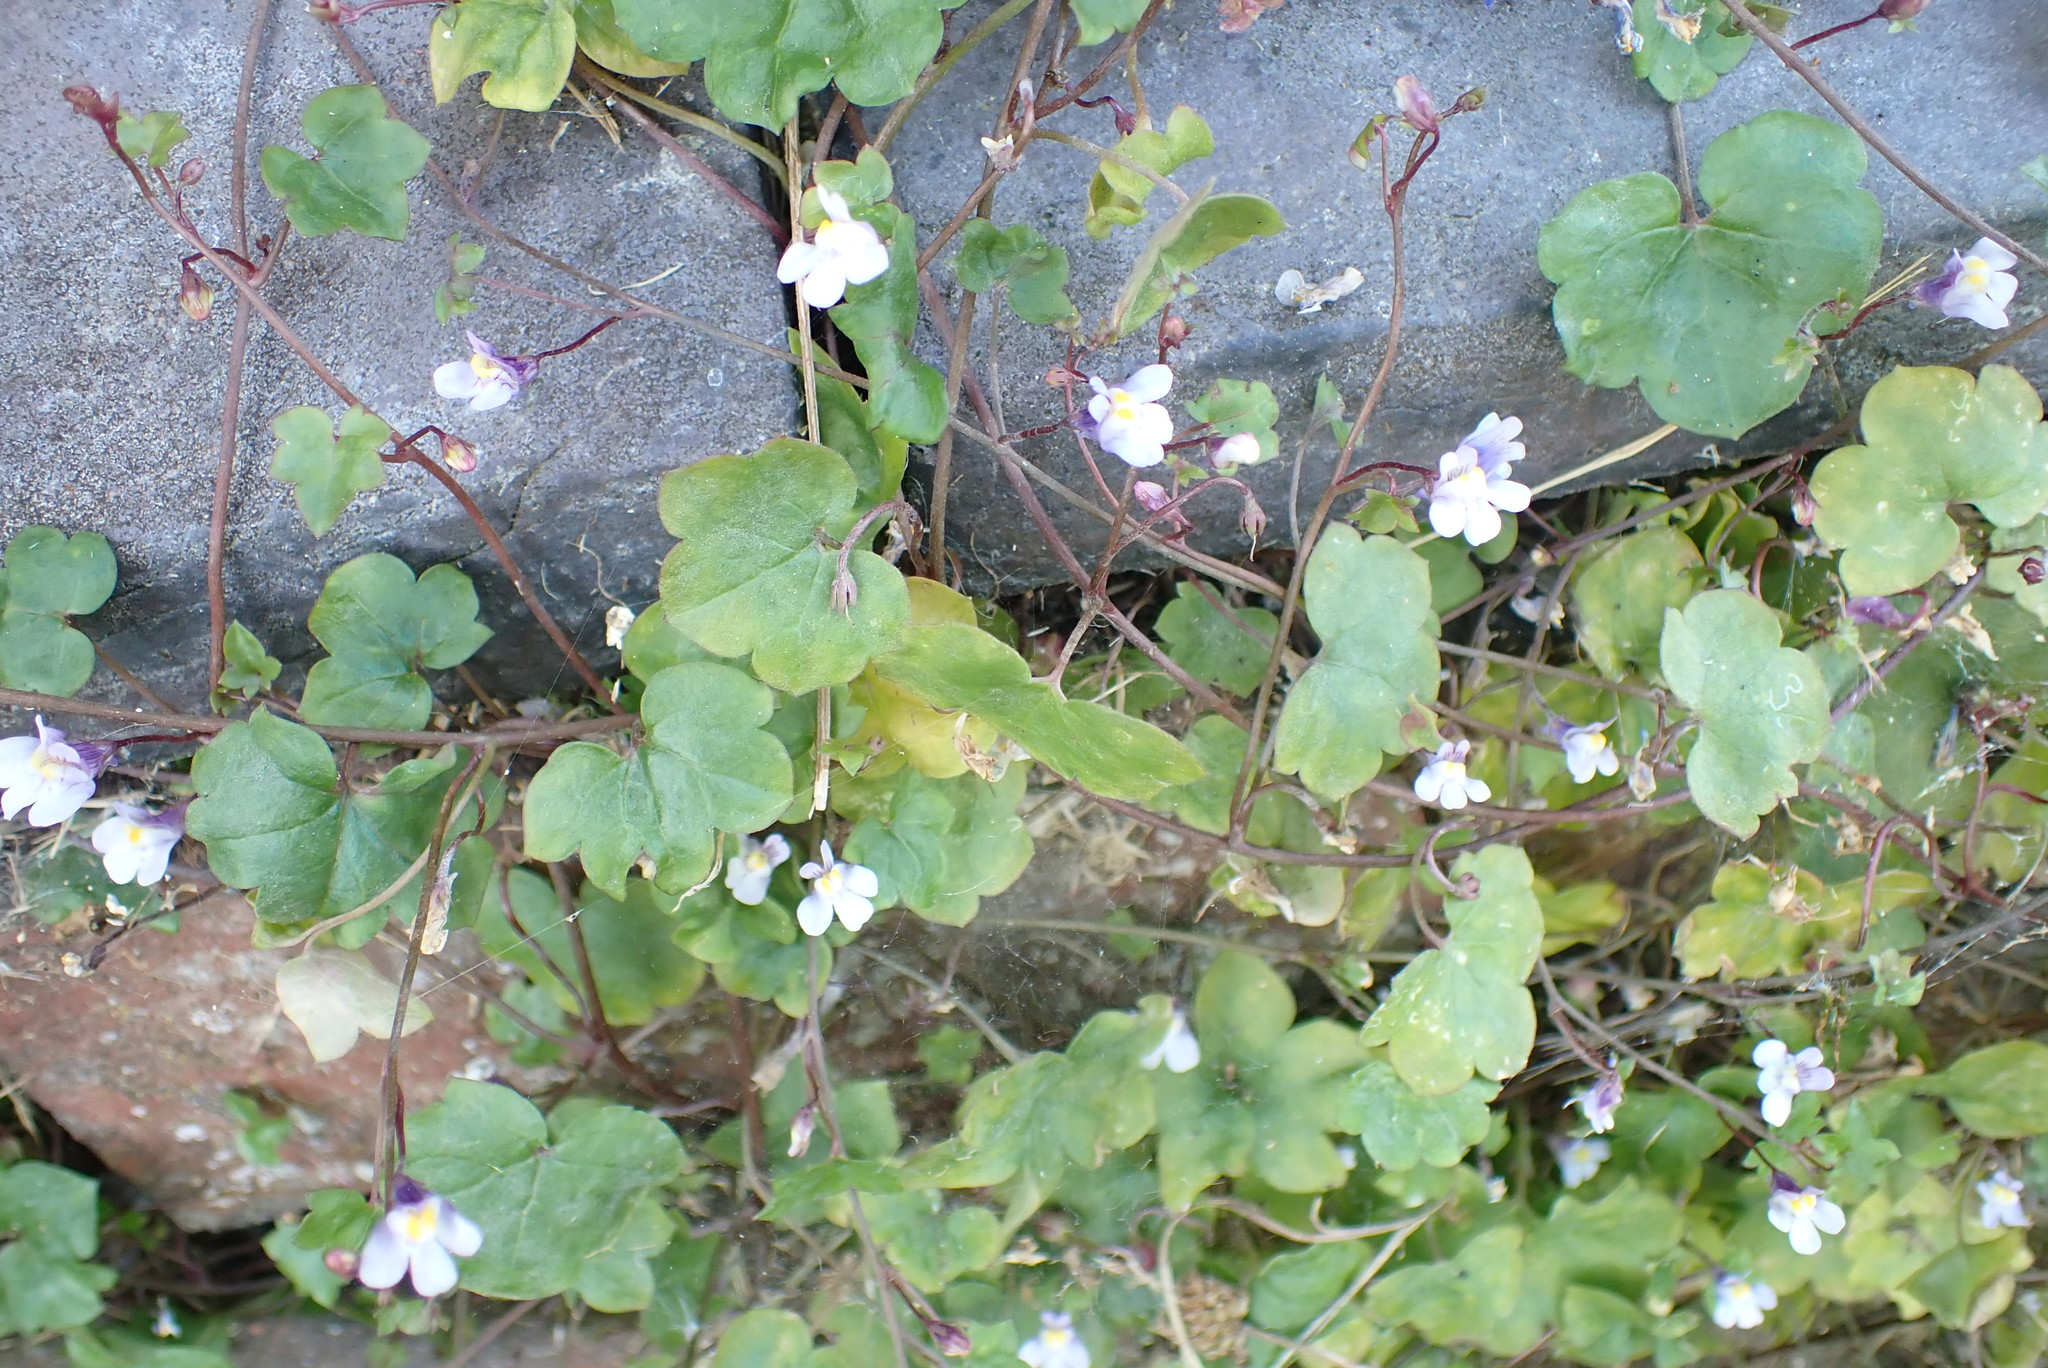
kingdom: Plantae
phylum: Tracheophyta
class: Magnoliopsida
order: Lamiales
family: Plantaginaceae
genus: Cymbalaria
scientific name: Cymbalaria muralis
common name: Ivy-leaved toadflax
